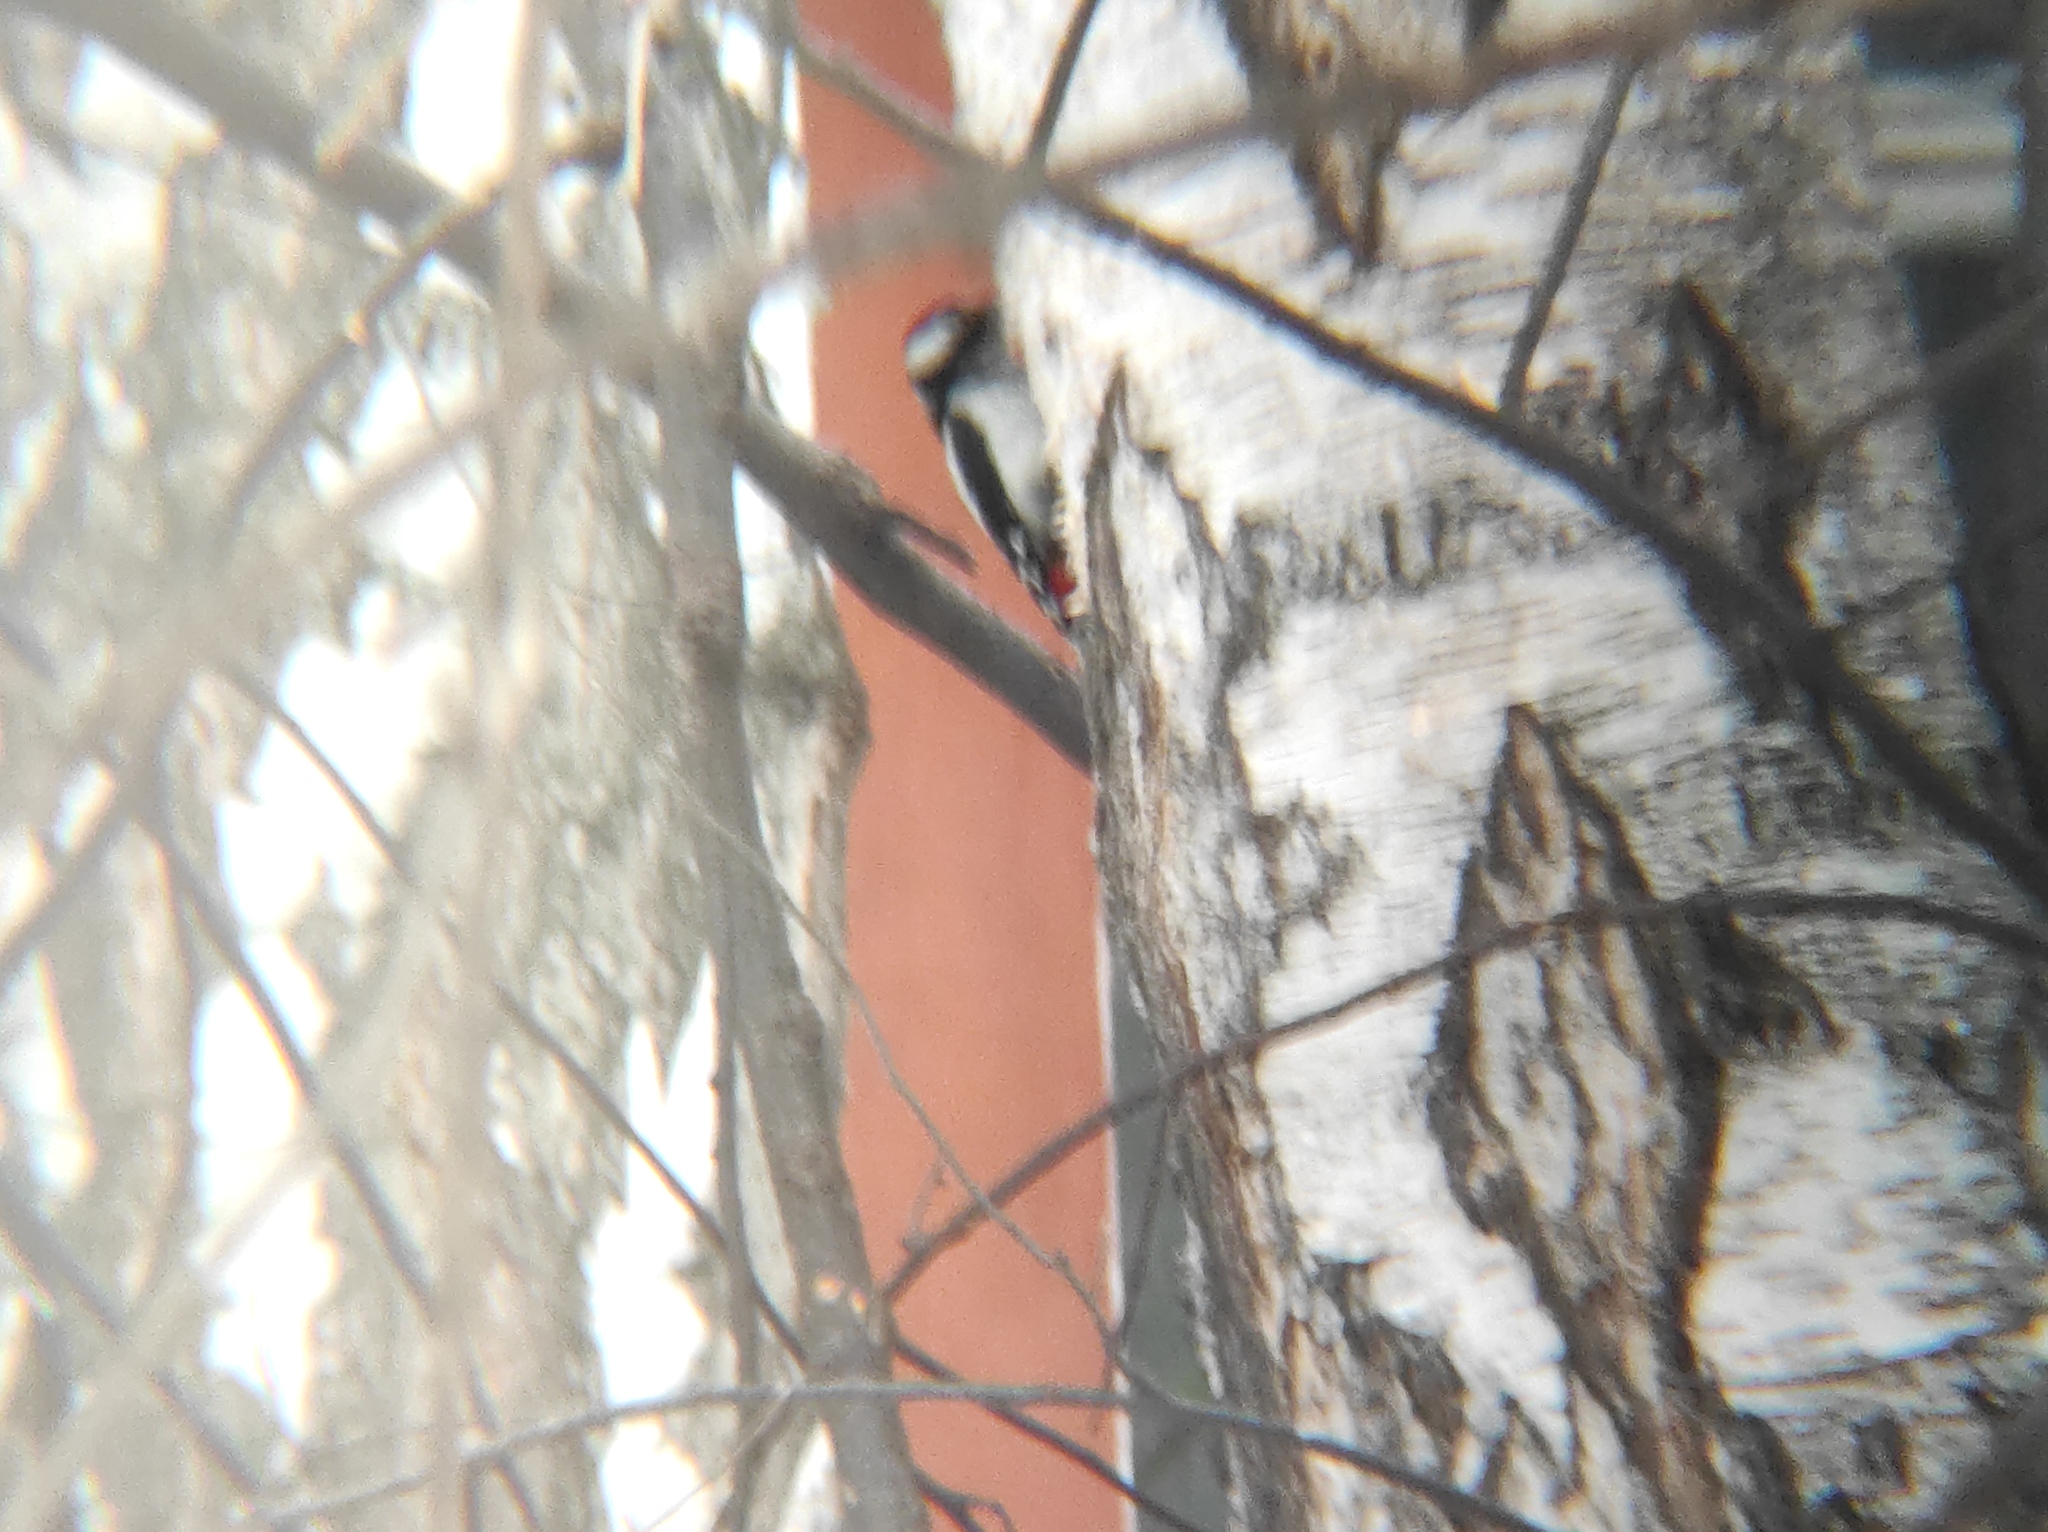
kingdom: Animalia
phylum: Chordata
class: Aves
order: Piciformes
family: Picidae
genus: Dendrocopos
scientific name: Dendrocopos major
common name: Great spotted woodpecker
